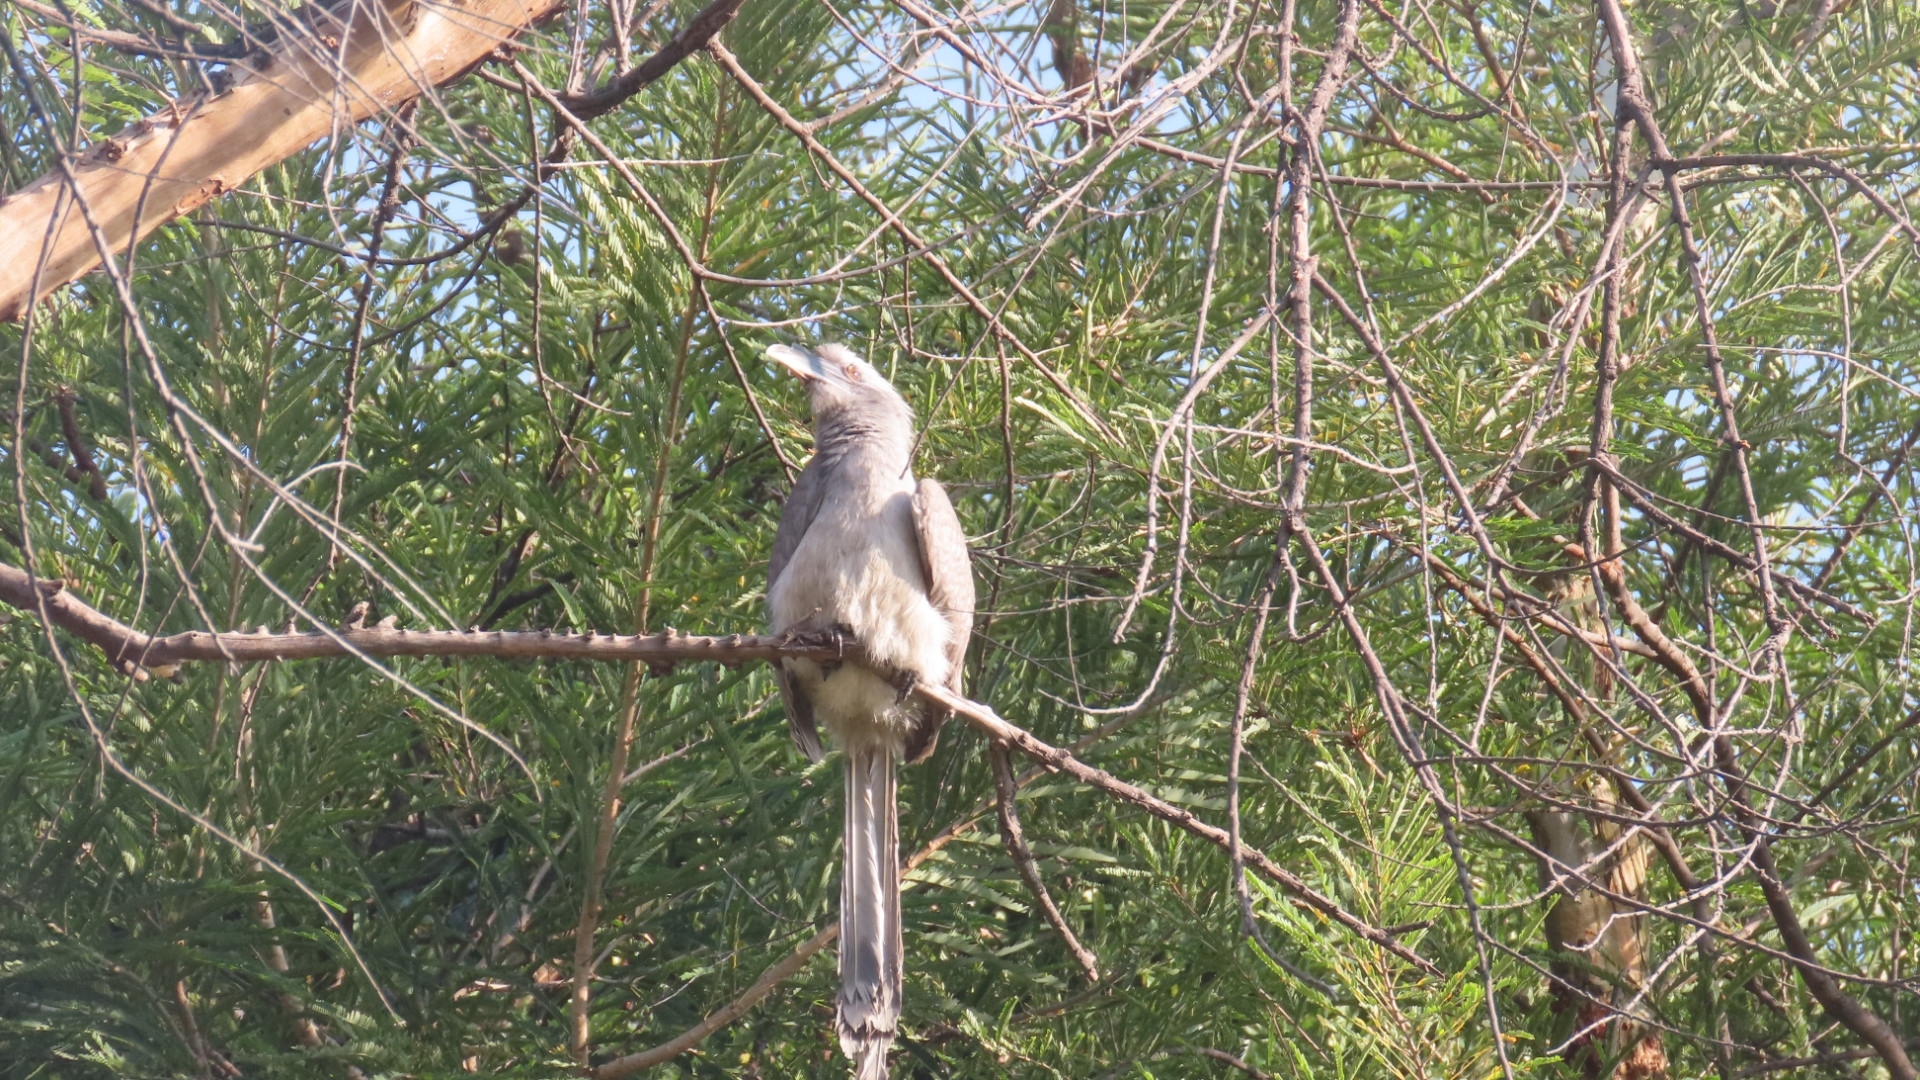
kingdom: Animalia
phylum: Chordata
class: Aves
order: Bucerotiformes
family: Bucerotidae
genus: Ocyceros
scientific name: Ocyceros birostris
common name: Indian grey hornbill
